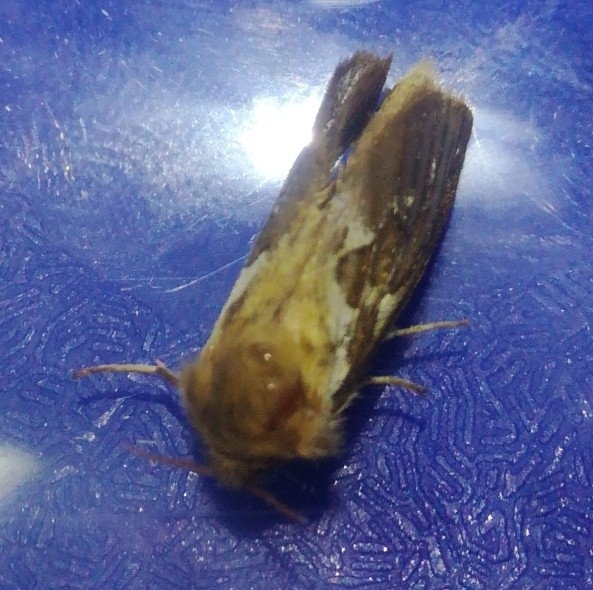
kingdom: Animalia
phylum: Arthropoda
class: Insecta
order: Lepidoptera
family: Hepialidae
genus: Korscheltellus
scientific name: Korscheltellus lupulina
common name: Common swift
